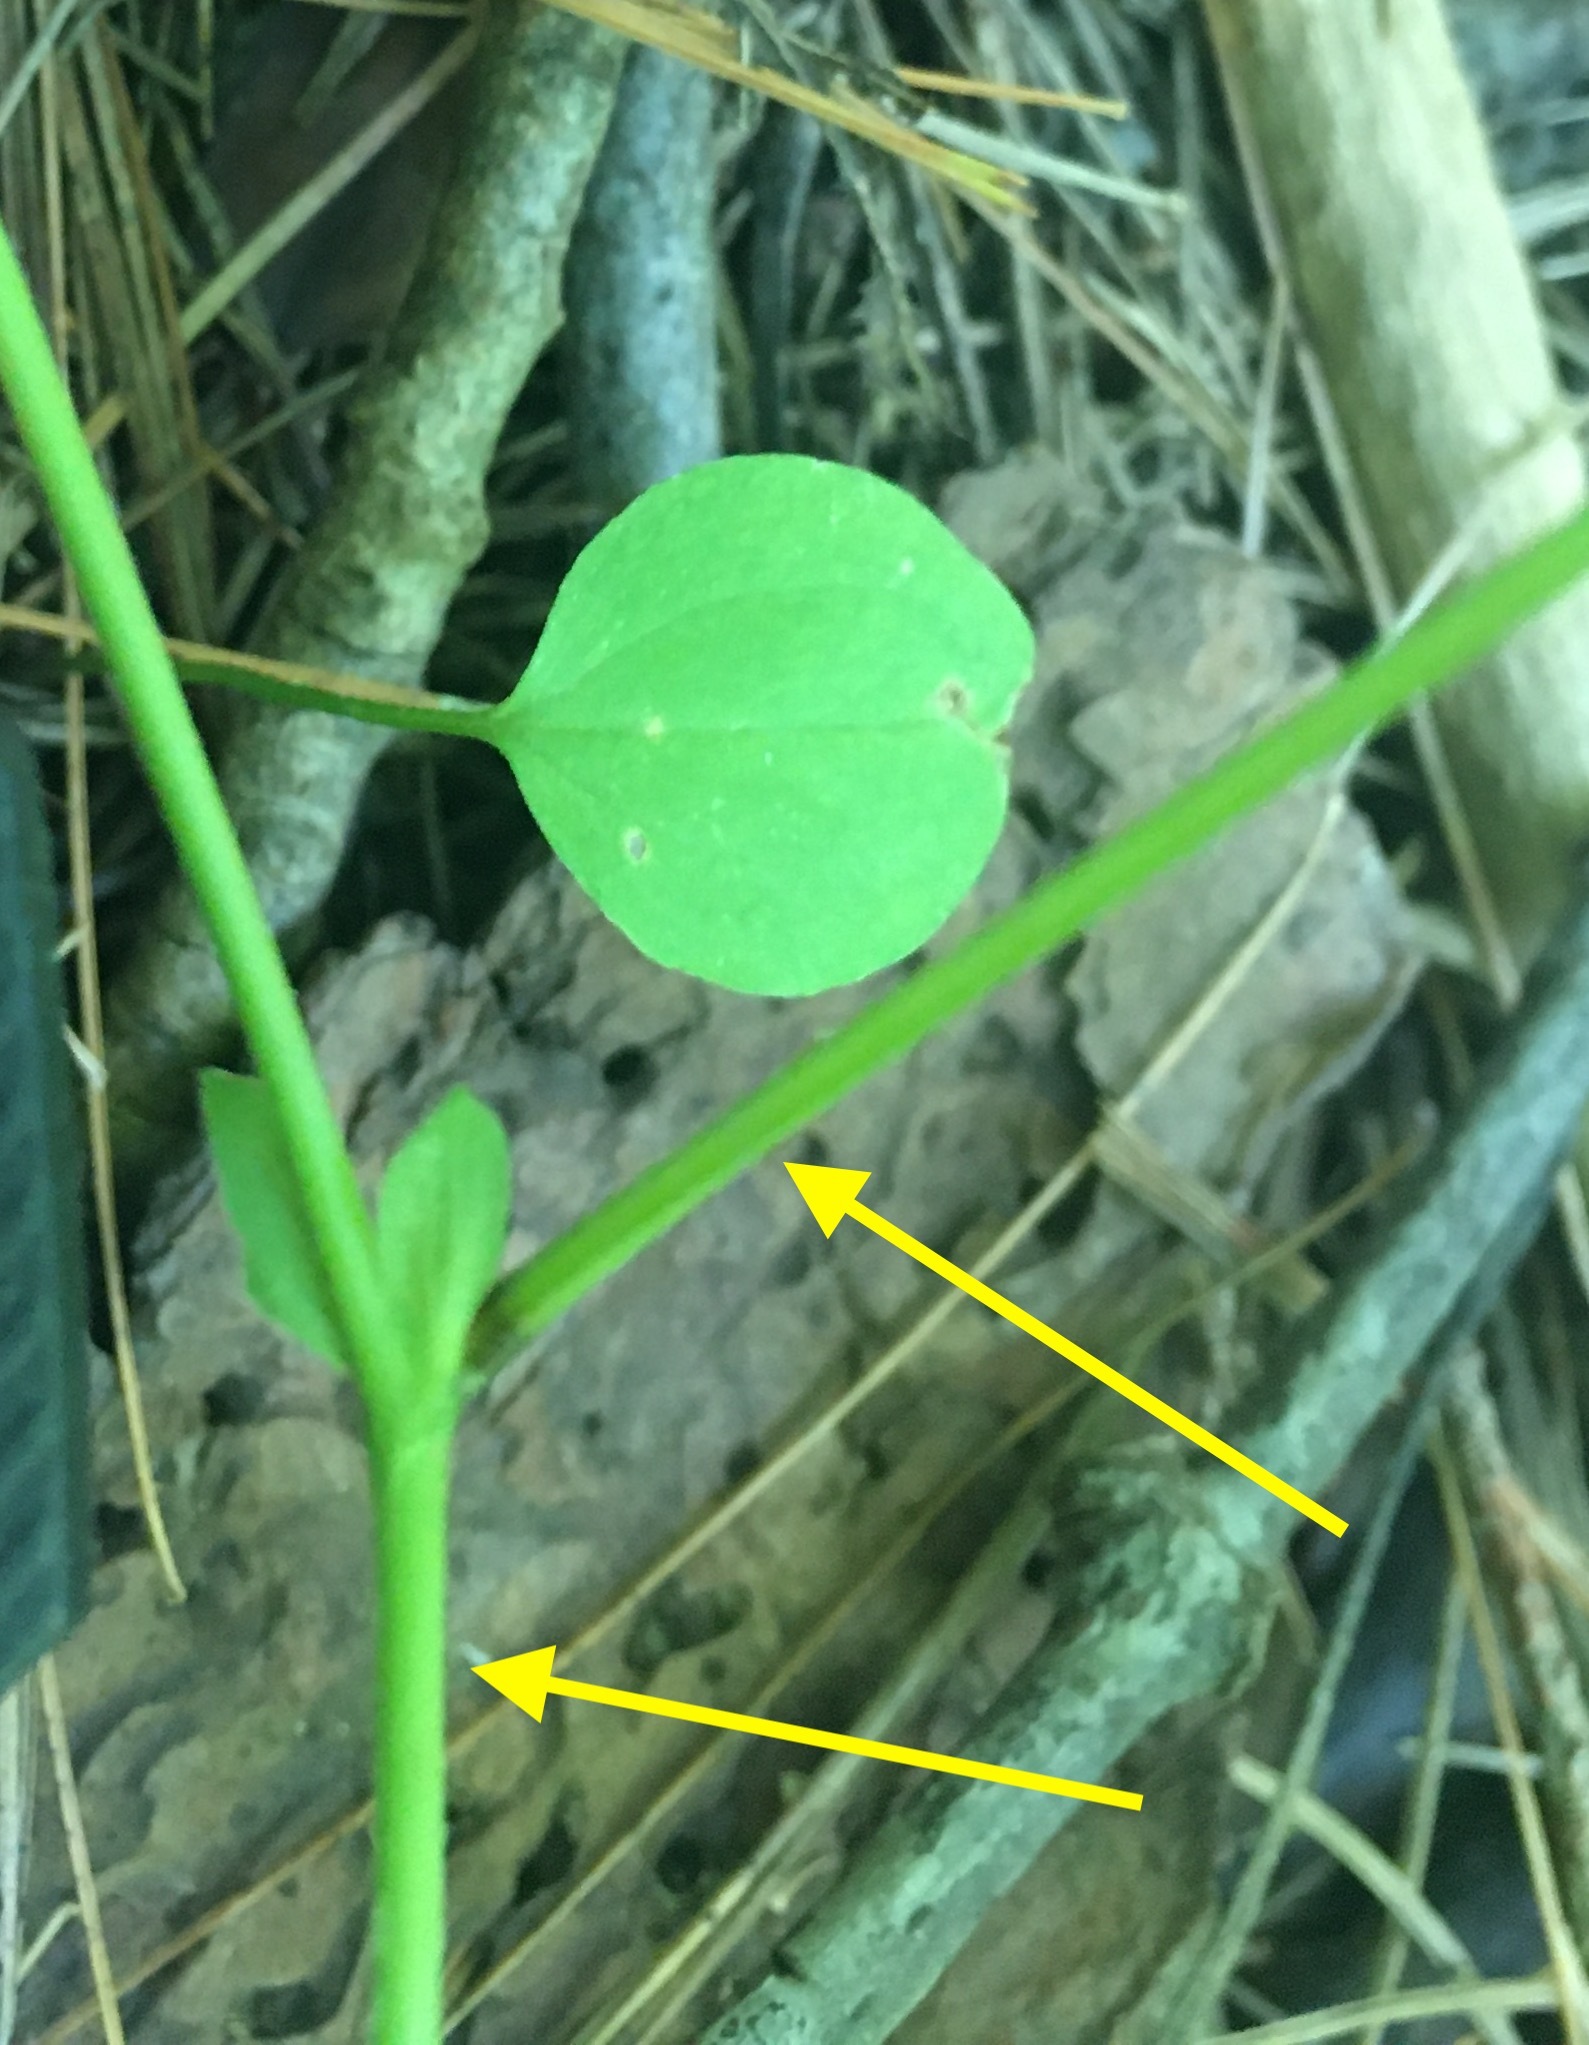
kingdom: Plantae
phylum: Tracheophyta
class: Magnoliopsida
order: Rosales
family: Rosaceae
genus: Rubus
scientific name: Rubus pubescens
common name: Dwarf raspberry
